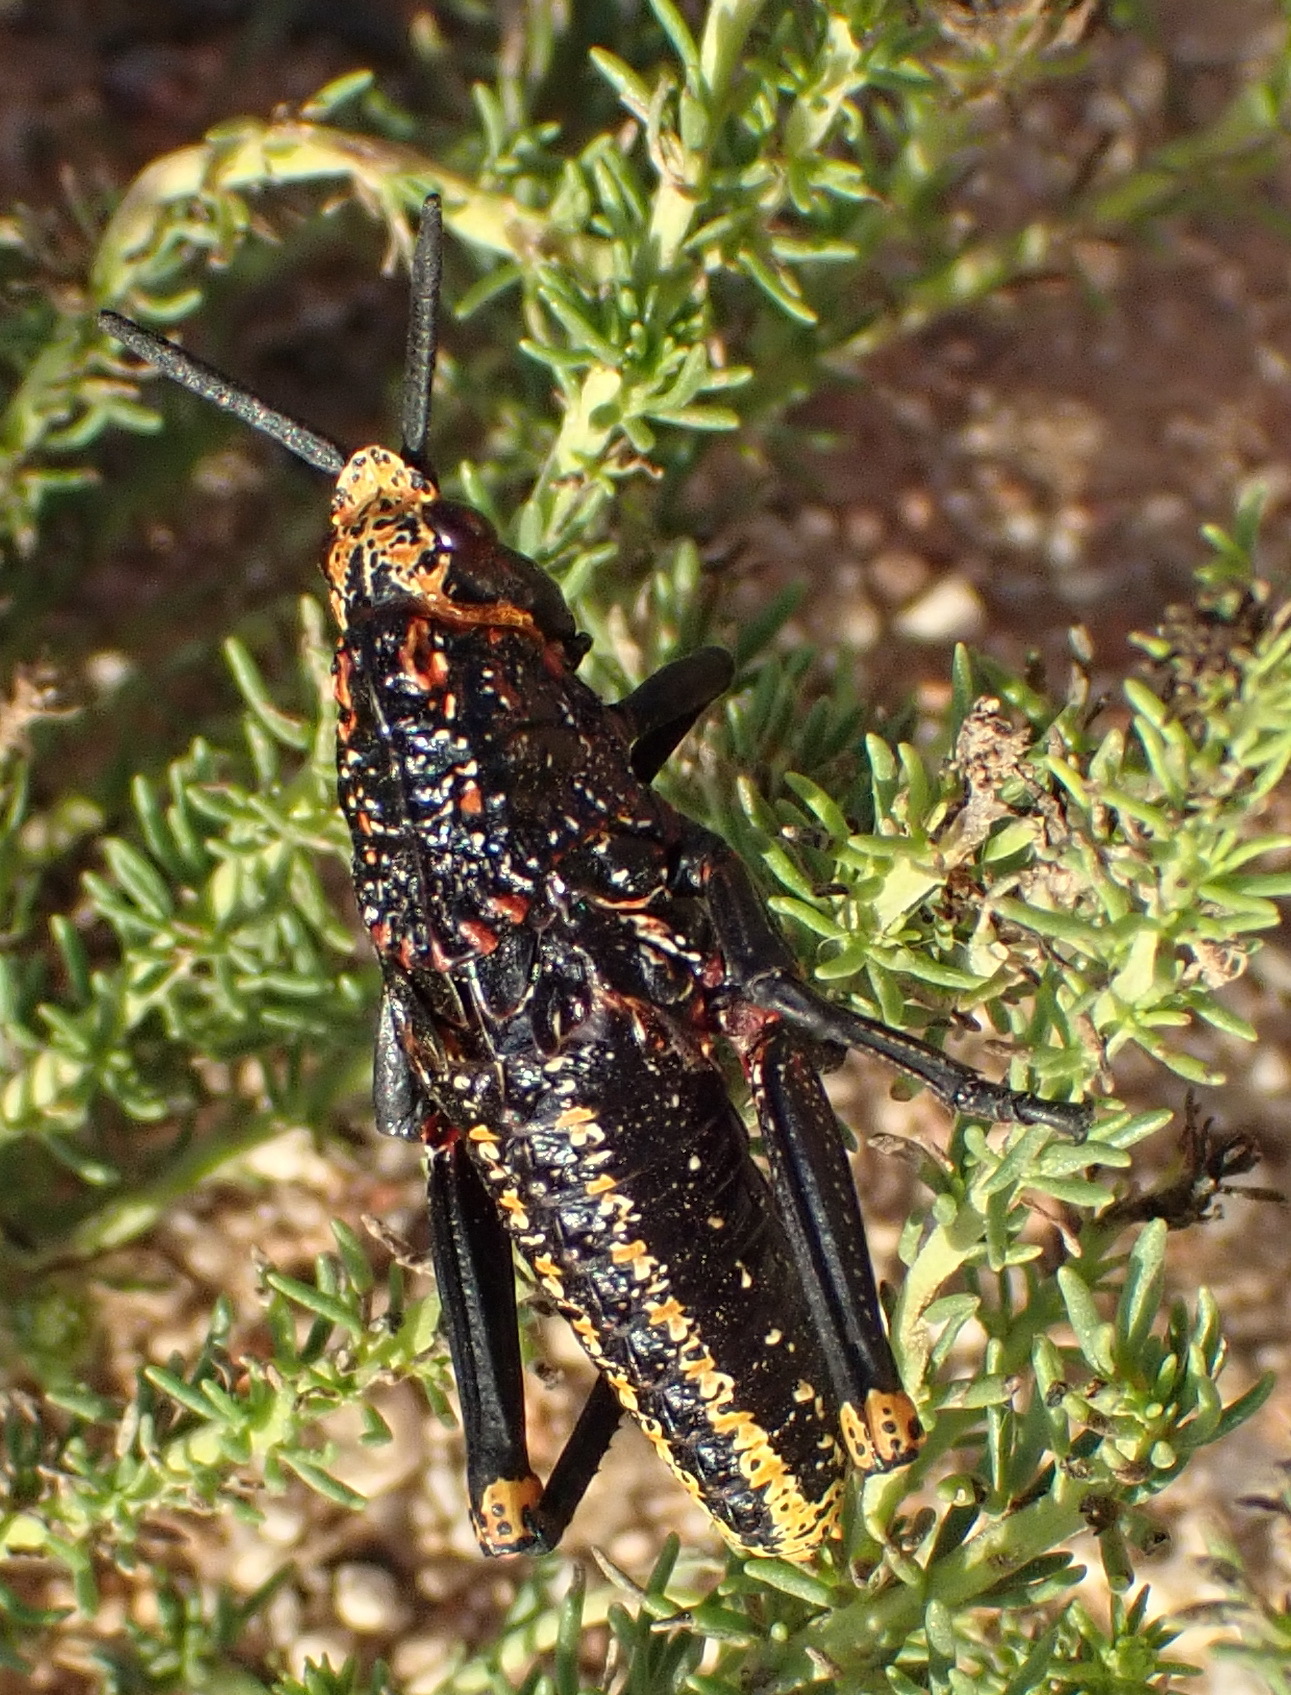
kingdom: Animalia
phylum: Arthropoda
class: Insecta
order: Orthoptera
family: Pyrgomorphidae
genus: Dictyophorus
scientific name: Dictyophorus spumans
